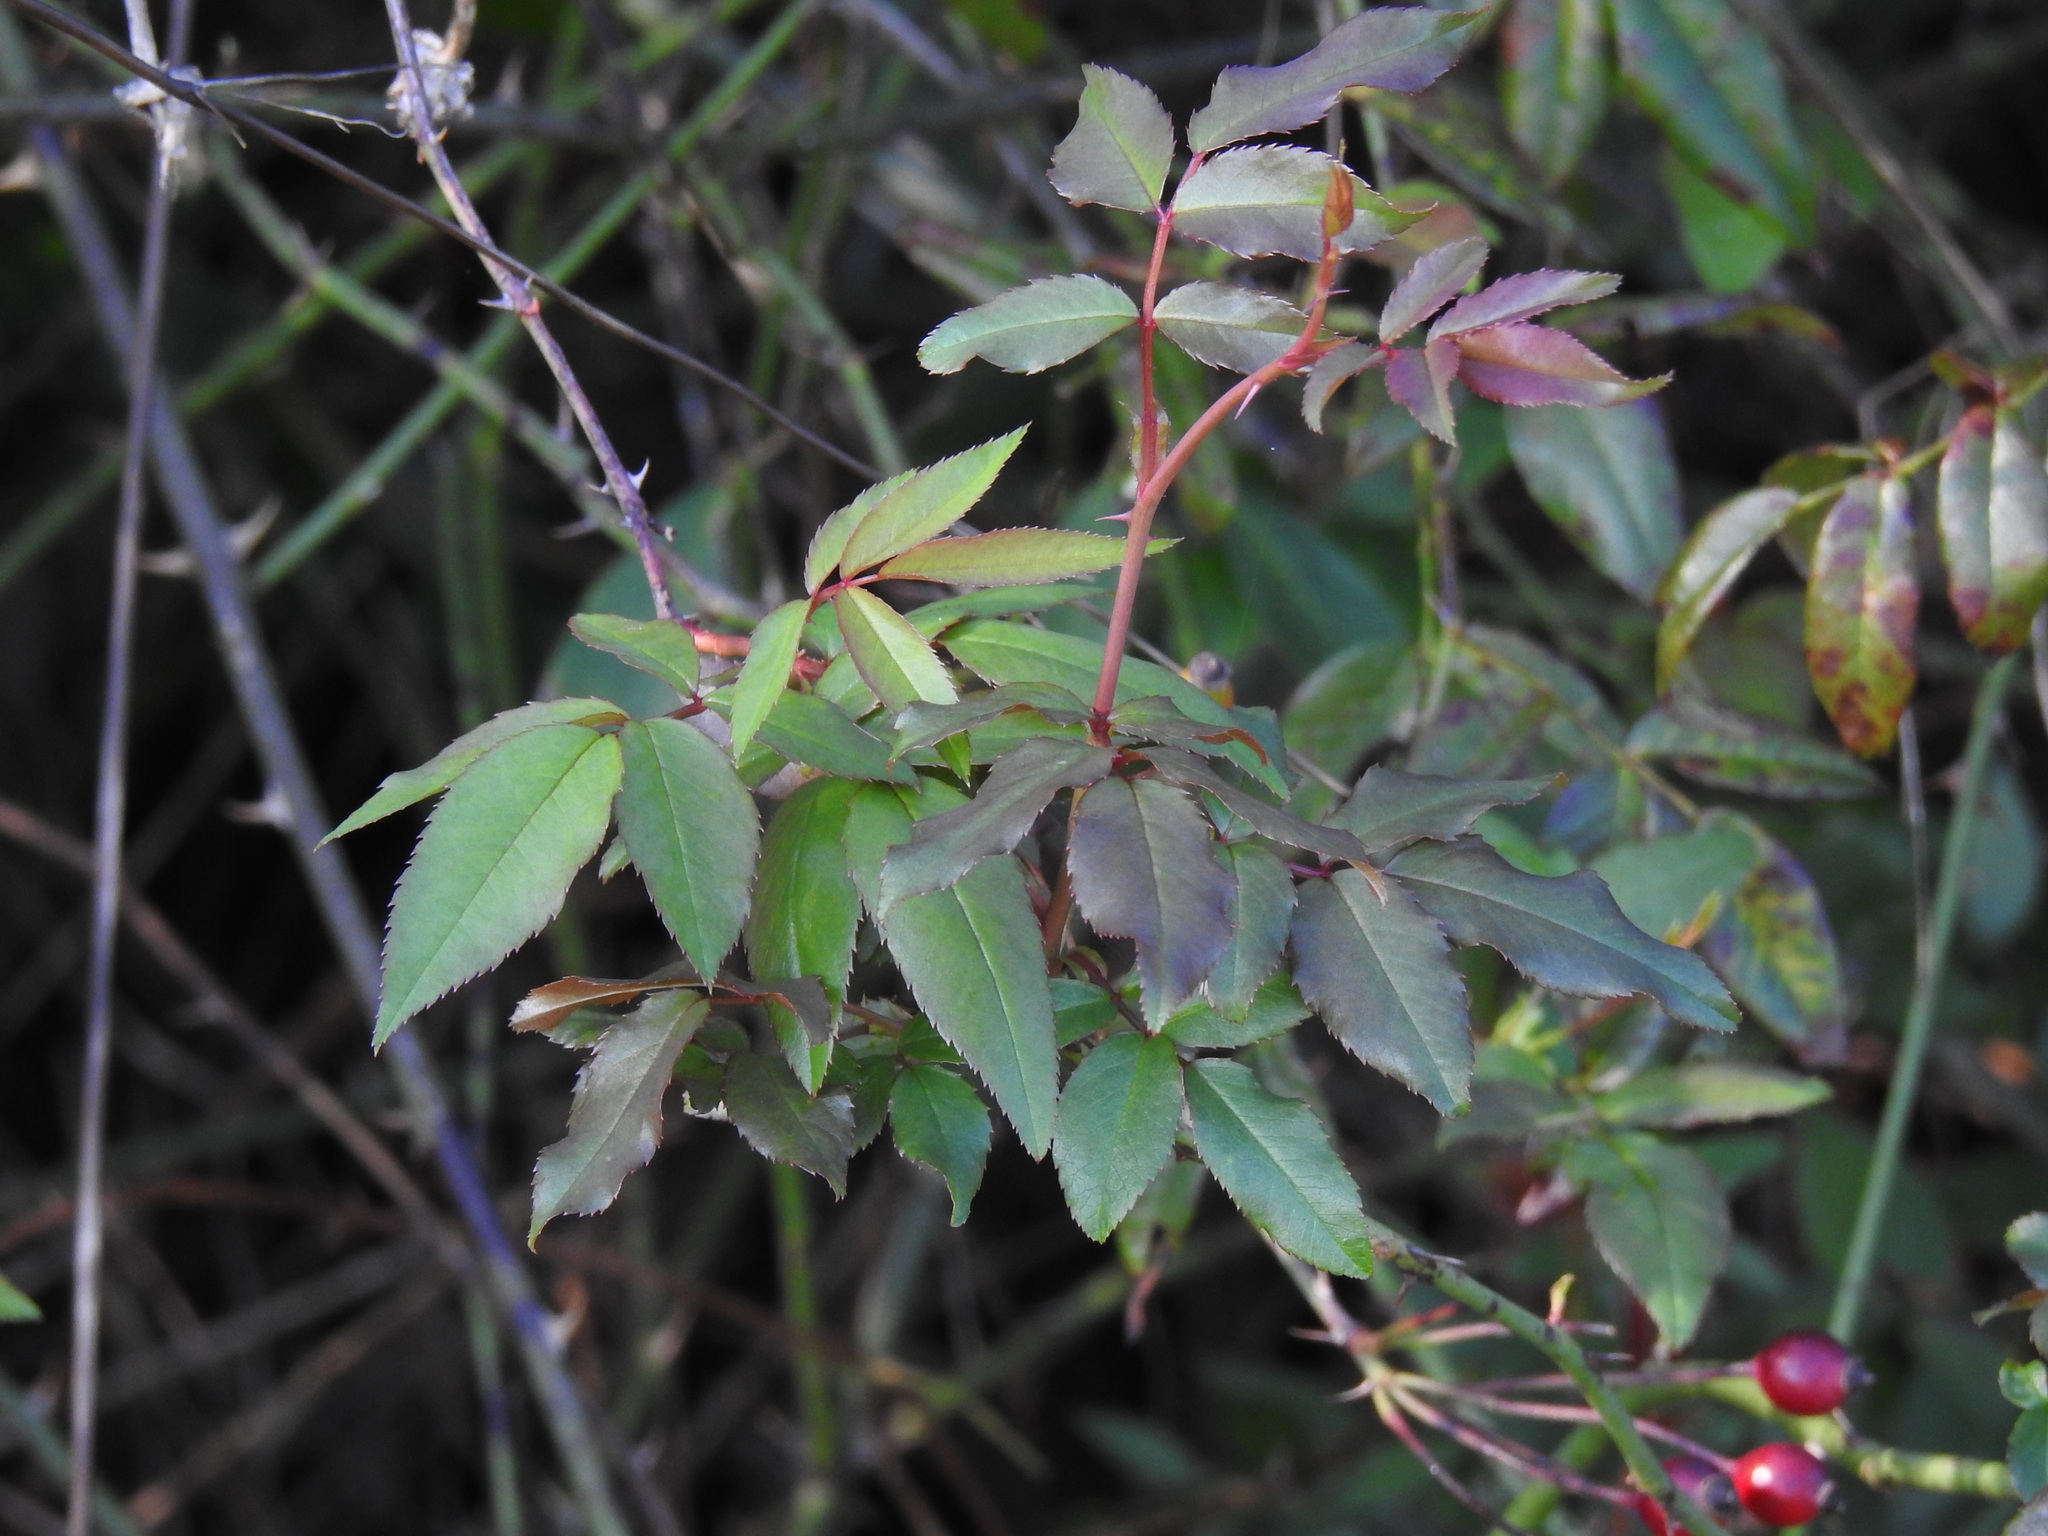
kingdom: Plantae
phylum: Tracheophyta
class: Magnoliopsida
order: Rosales
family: Rosaceae
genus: Rosa
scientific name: Rosa sempervirens
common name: Evergreen rose
